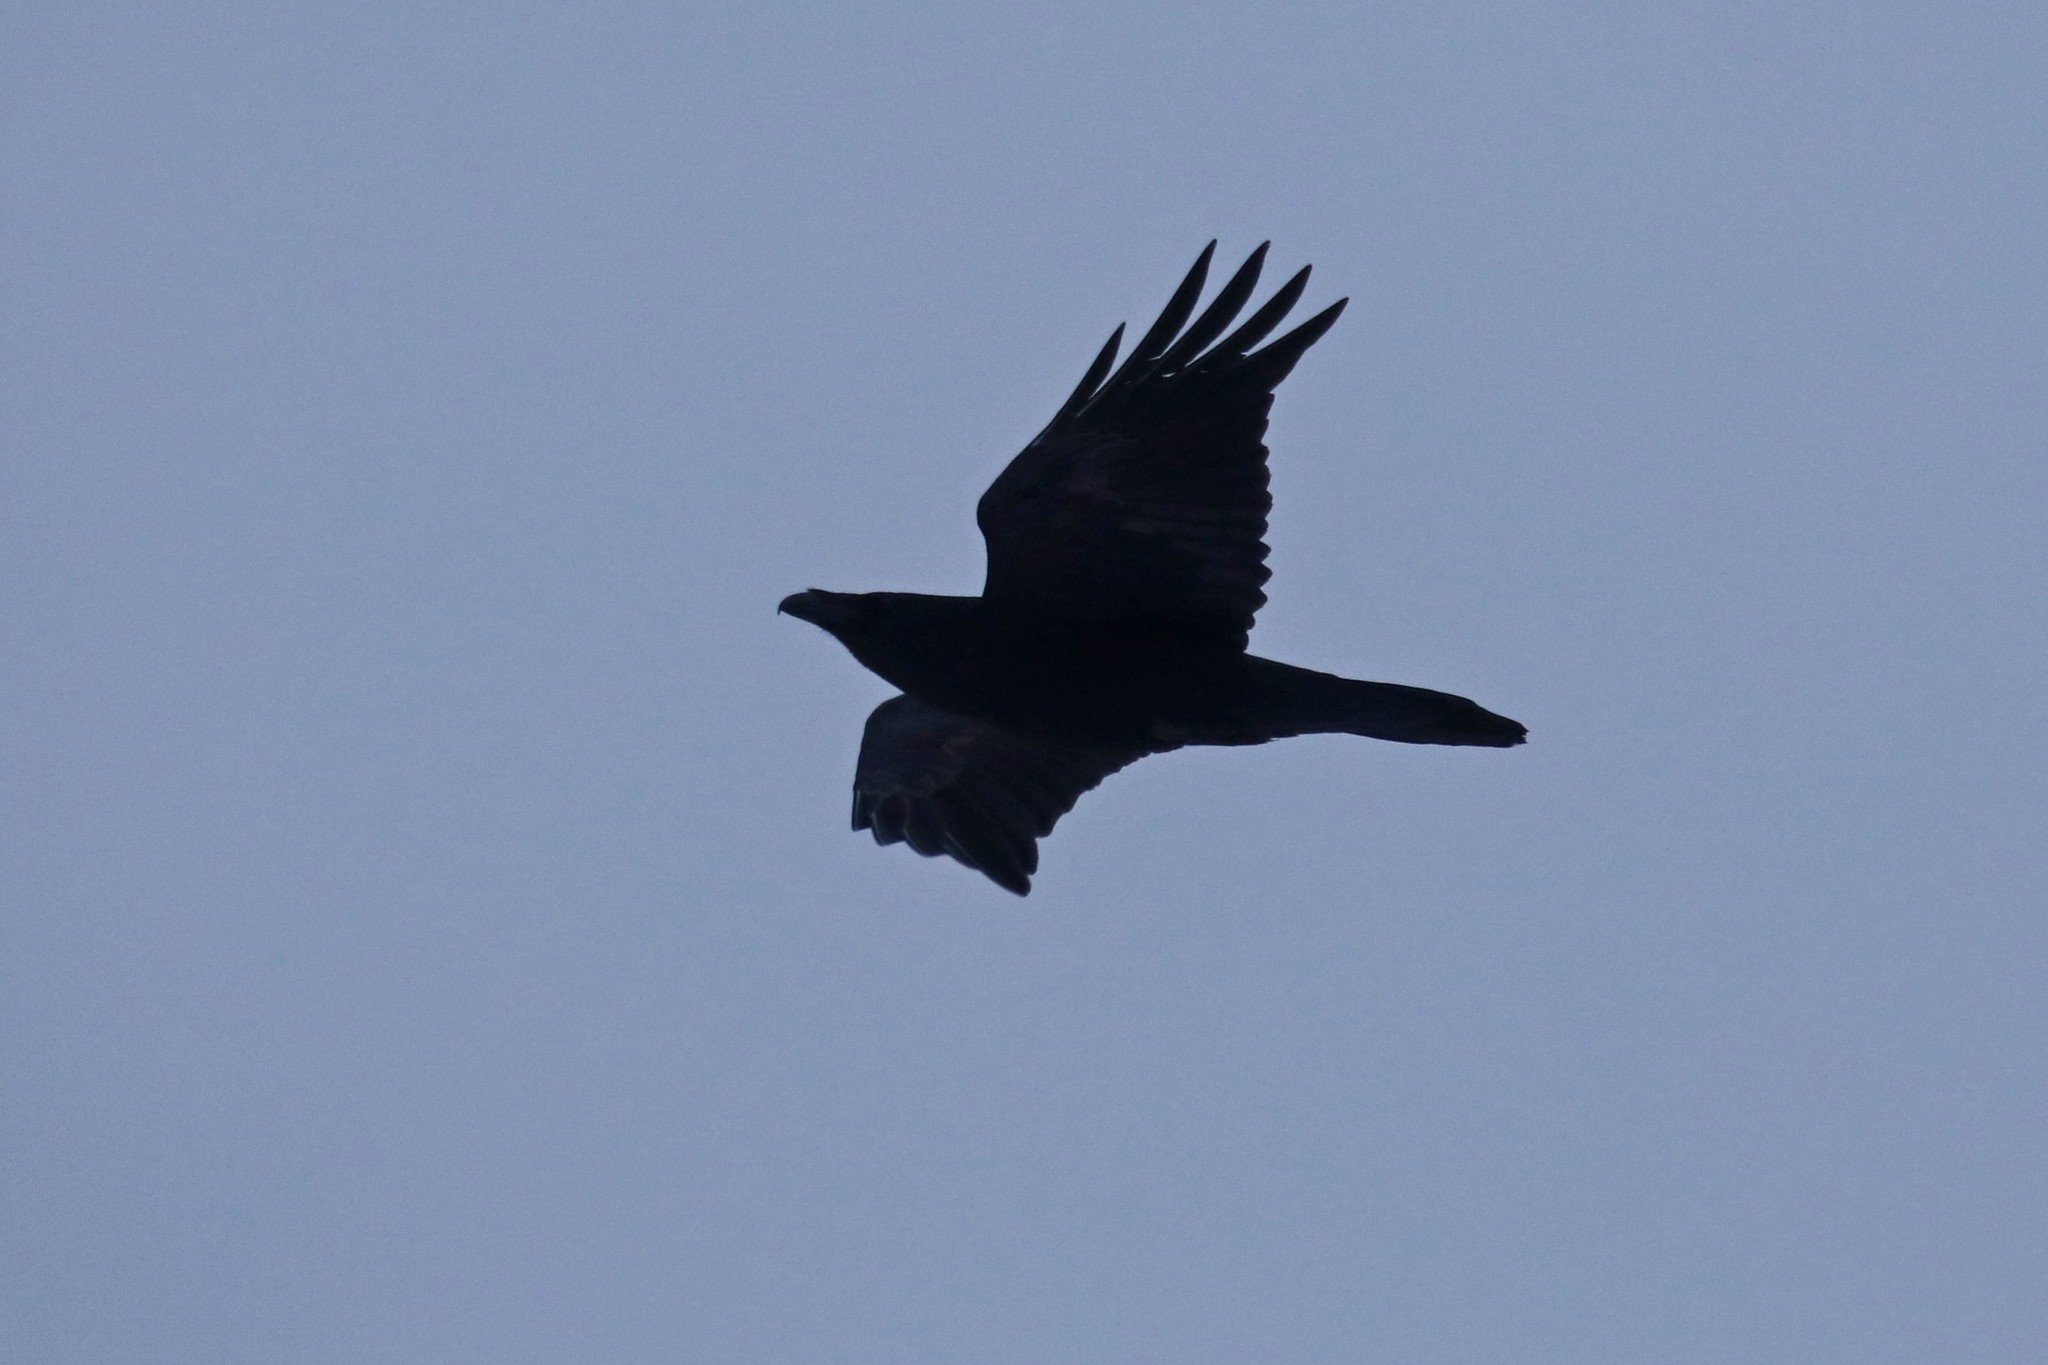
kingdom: Animalia
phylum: Chordata
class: Aves
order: Passeriformes
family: Corvidae
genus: Corvus
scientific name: Corvus corax
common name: Common raven
